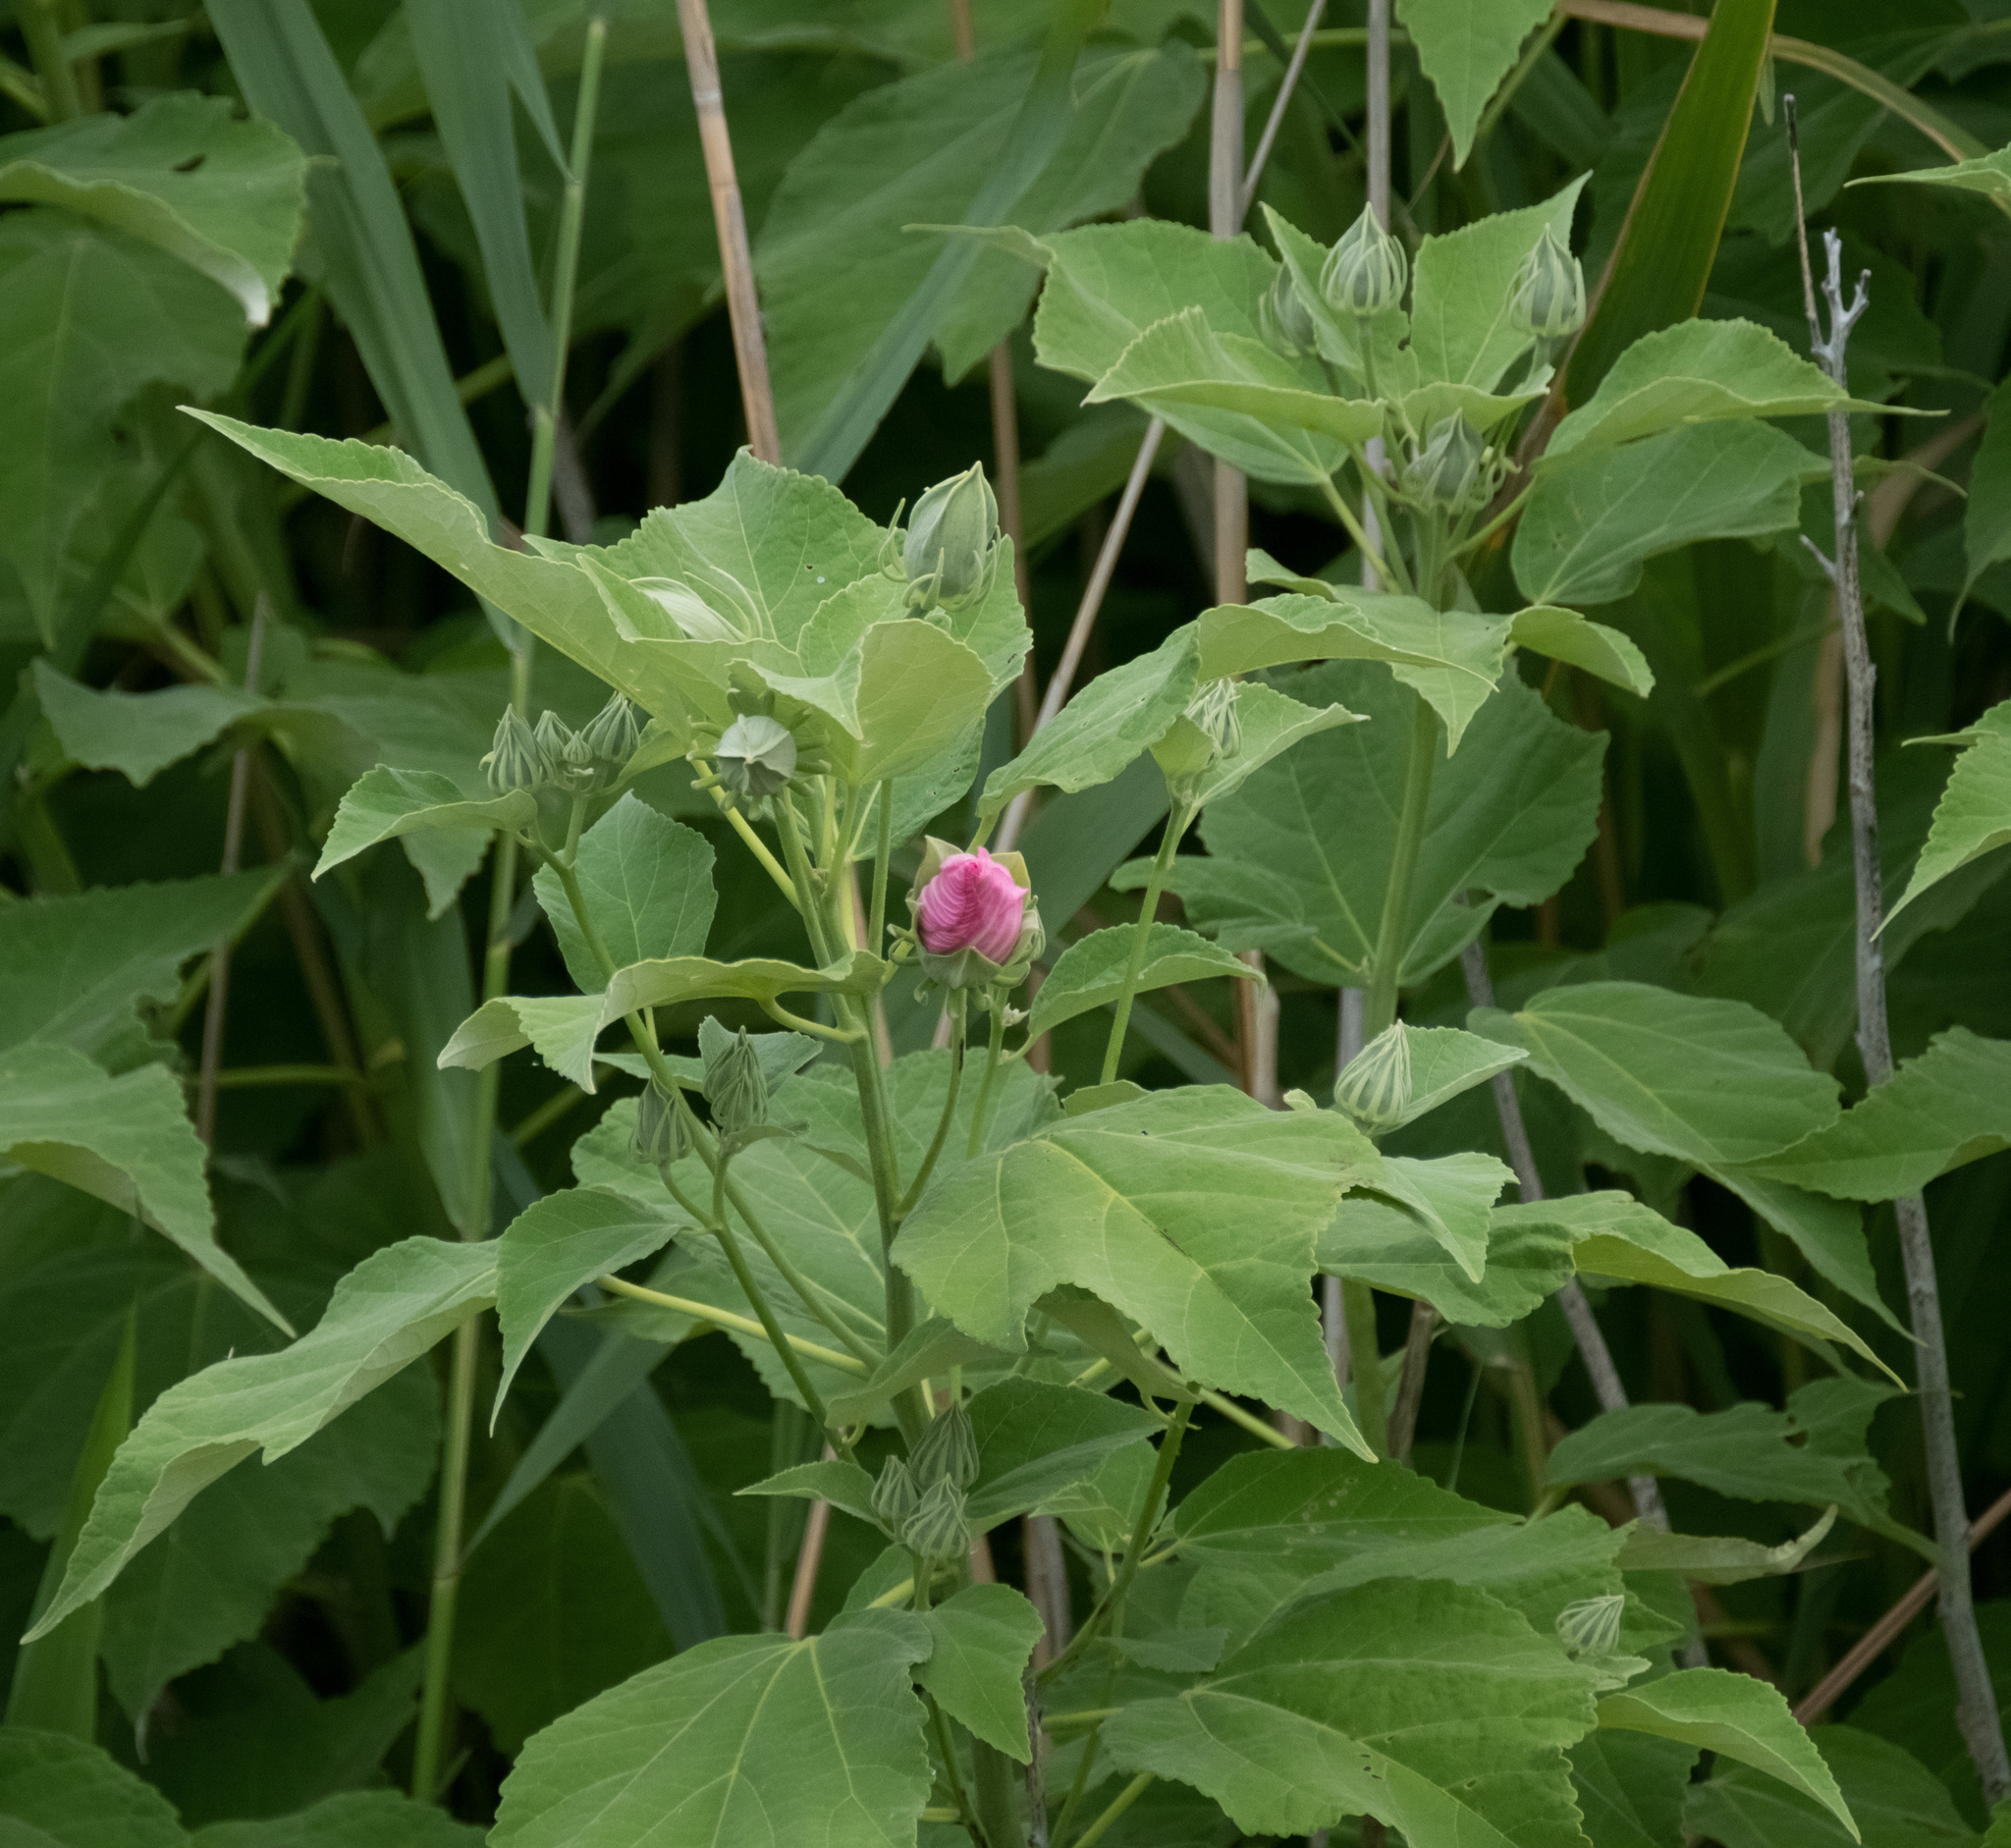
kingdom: Plantae
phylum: Tracheophyta
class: Magnoliopsida
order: Malvales
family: Malvaceae
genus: Hibiscus
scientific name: Hibiscus moscheutos
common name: Common rose-mallow
